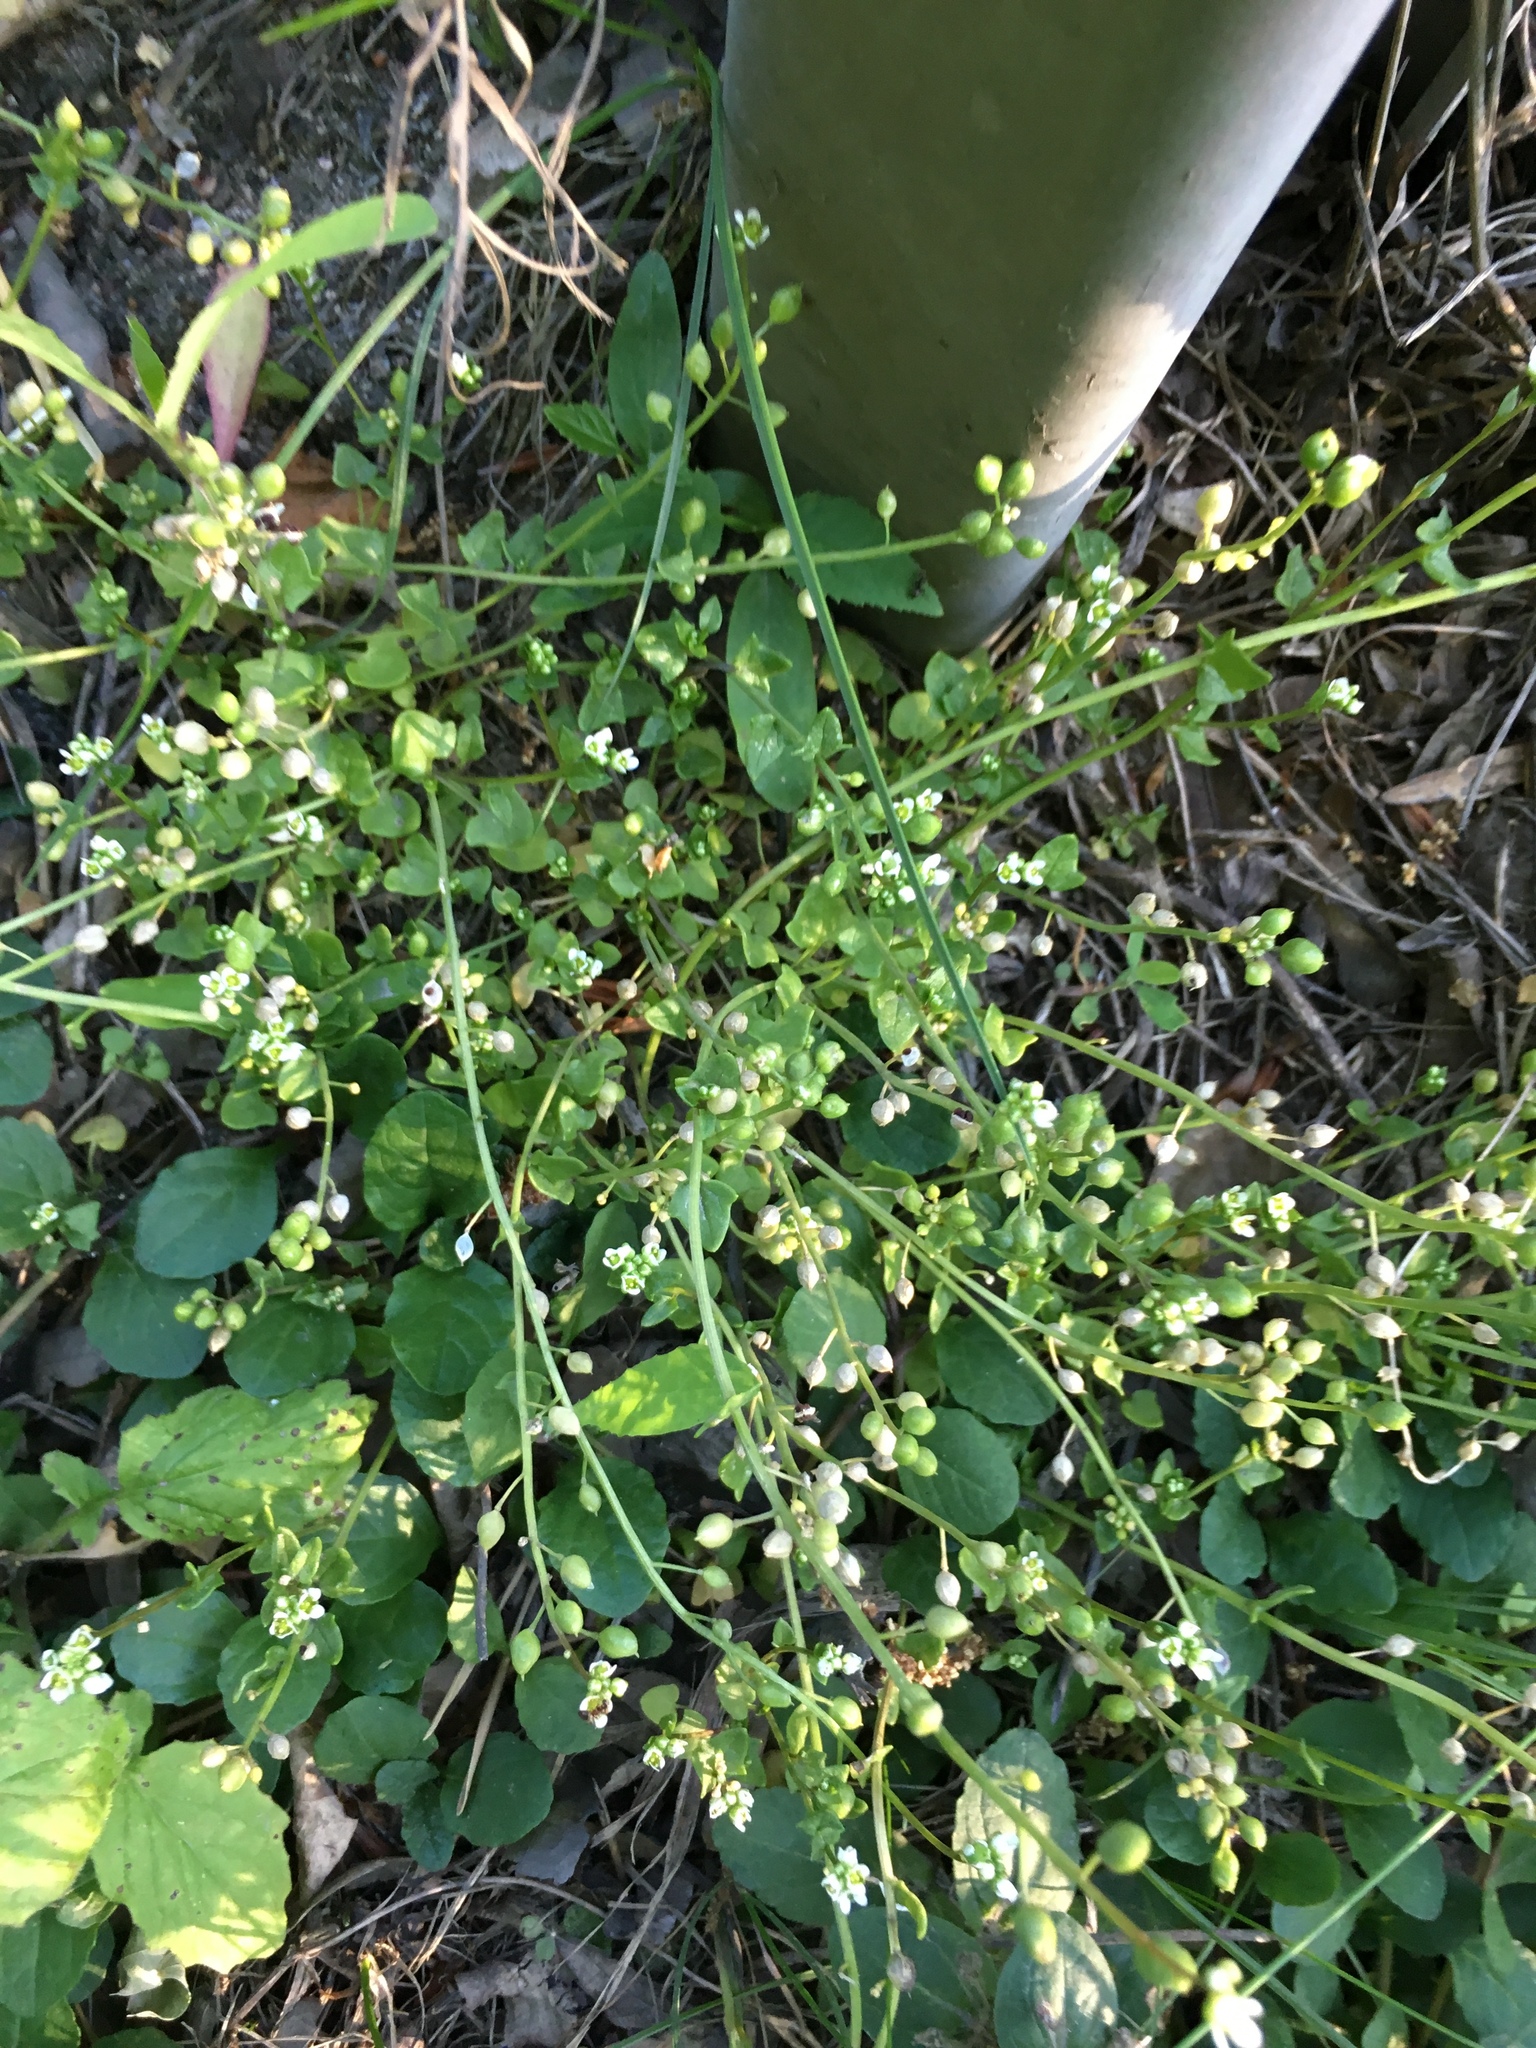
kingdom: Plantae
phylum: Tracheophyta
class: Magnoliopsida
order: Brassicales
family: Brassicaceae
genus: Cochlearia
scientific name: Cochlearia danica
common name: Early scurvygrass
